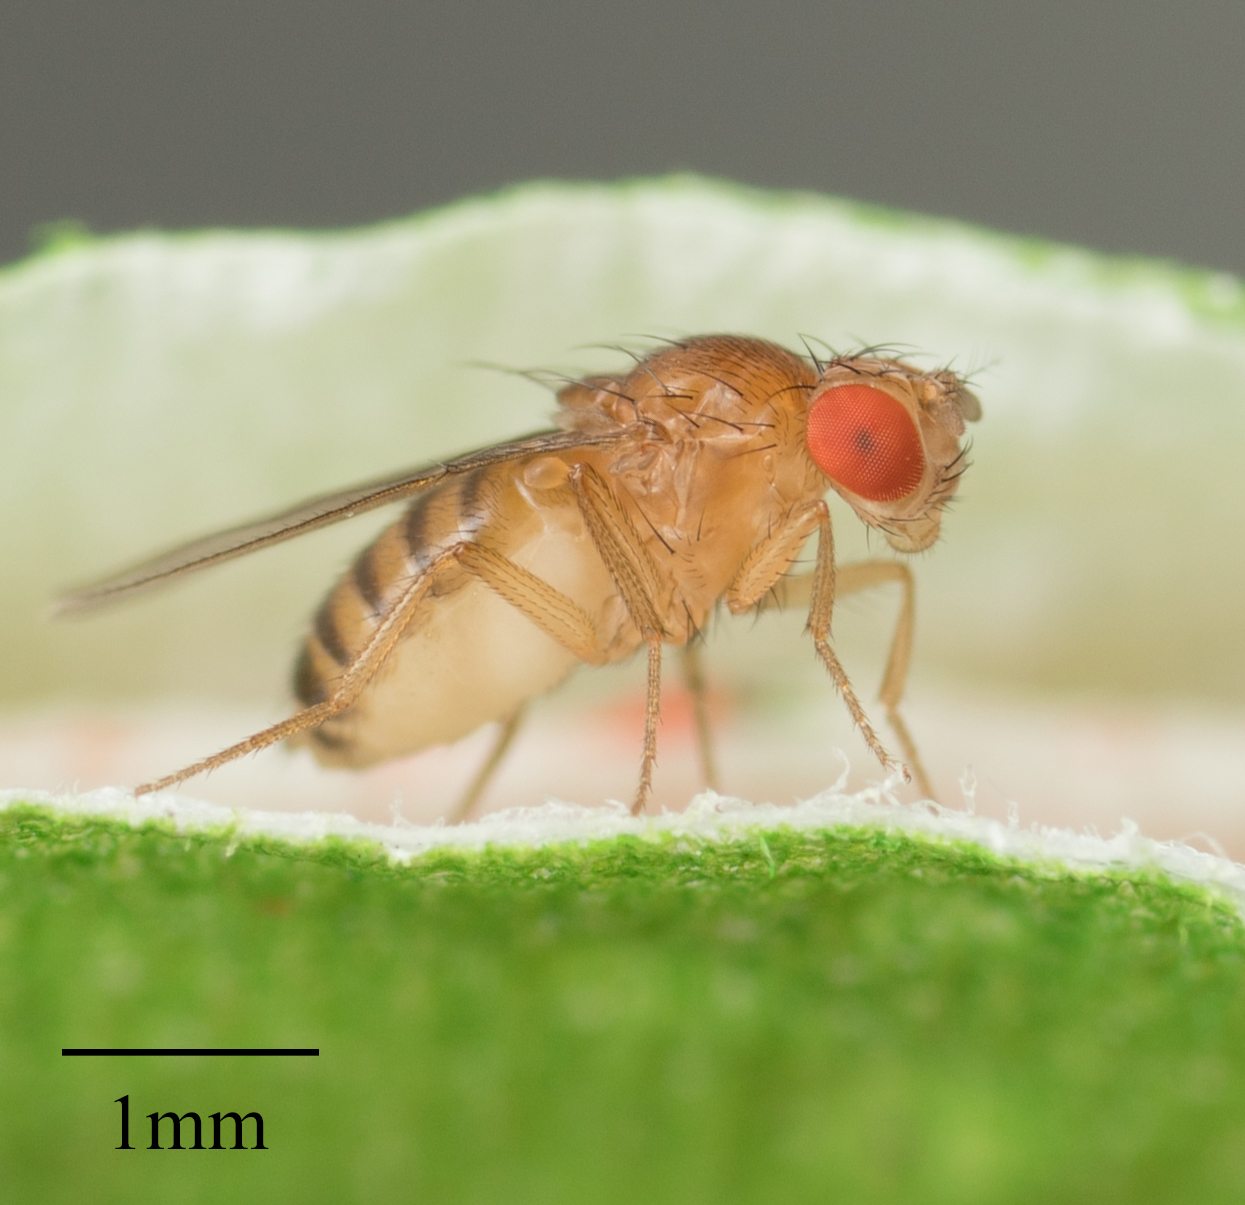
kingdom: Animalia
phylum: Arthropoda
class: Insecta
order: Diptera
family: Drosophilidae
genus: Drosophila
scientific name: Drosophila melanogaster
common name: Pomace fly
